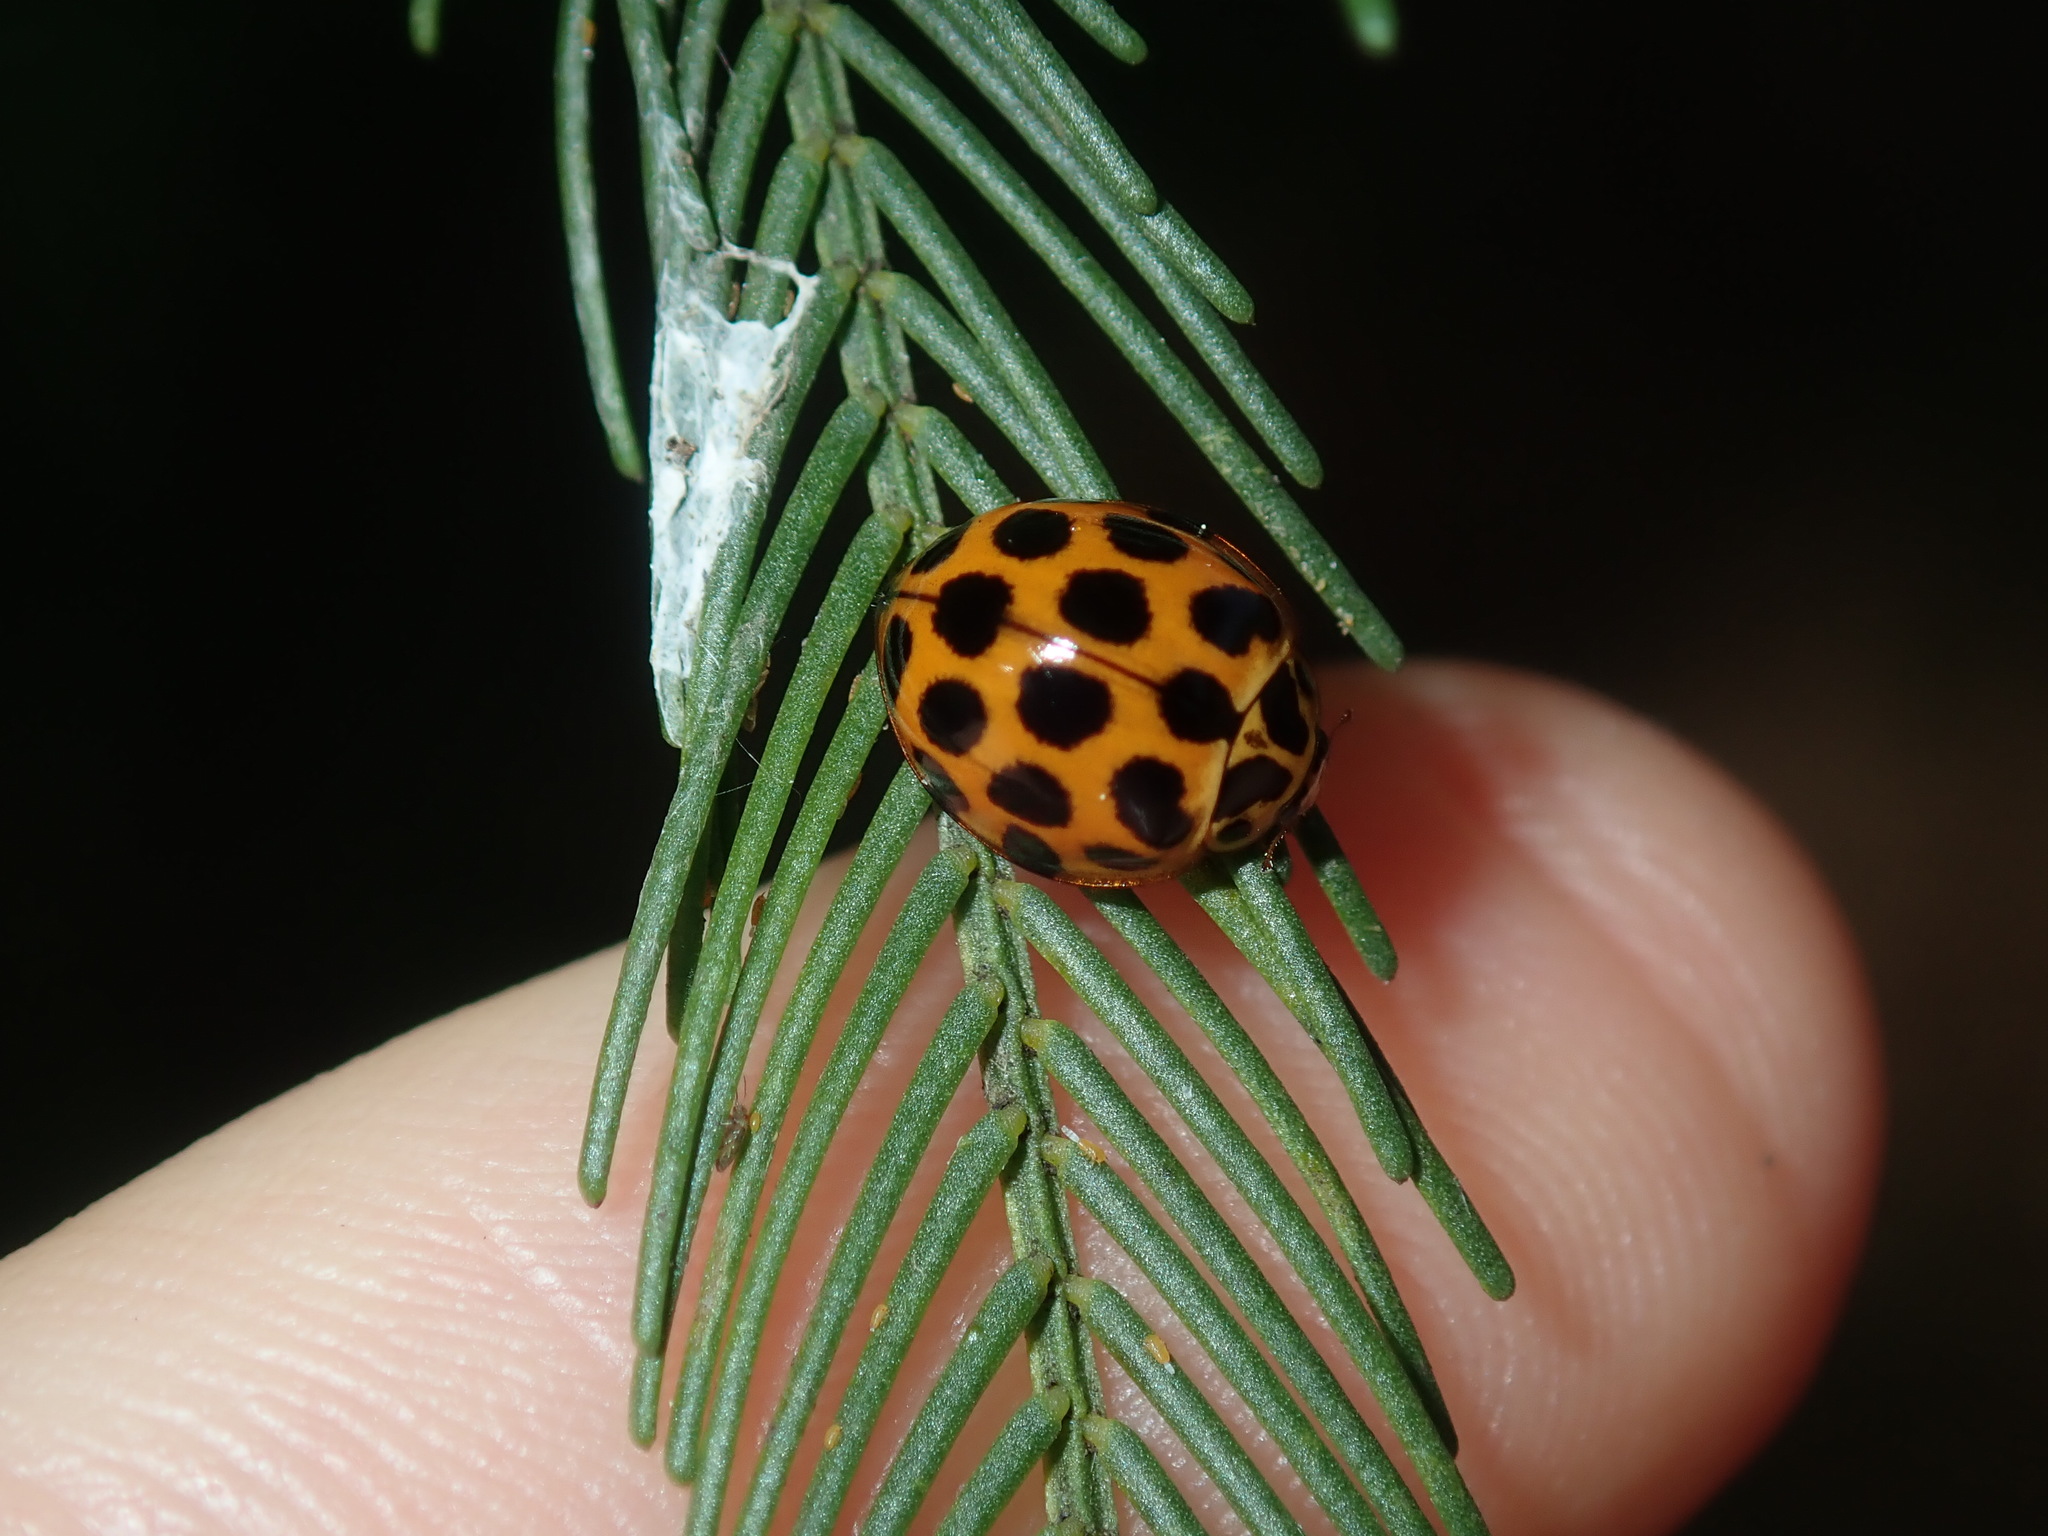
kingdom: Animalia
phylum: Arthropoda
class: Insecta
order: Coleoptera
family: Coccinellidae
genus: Harmonia
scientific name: Harmonia conformis
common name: Common spotted ladybird beetle
